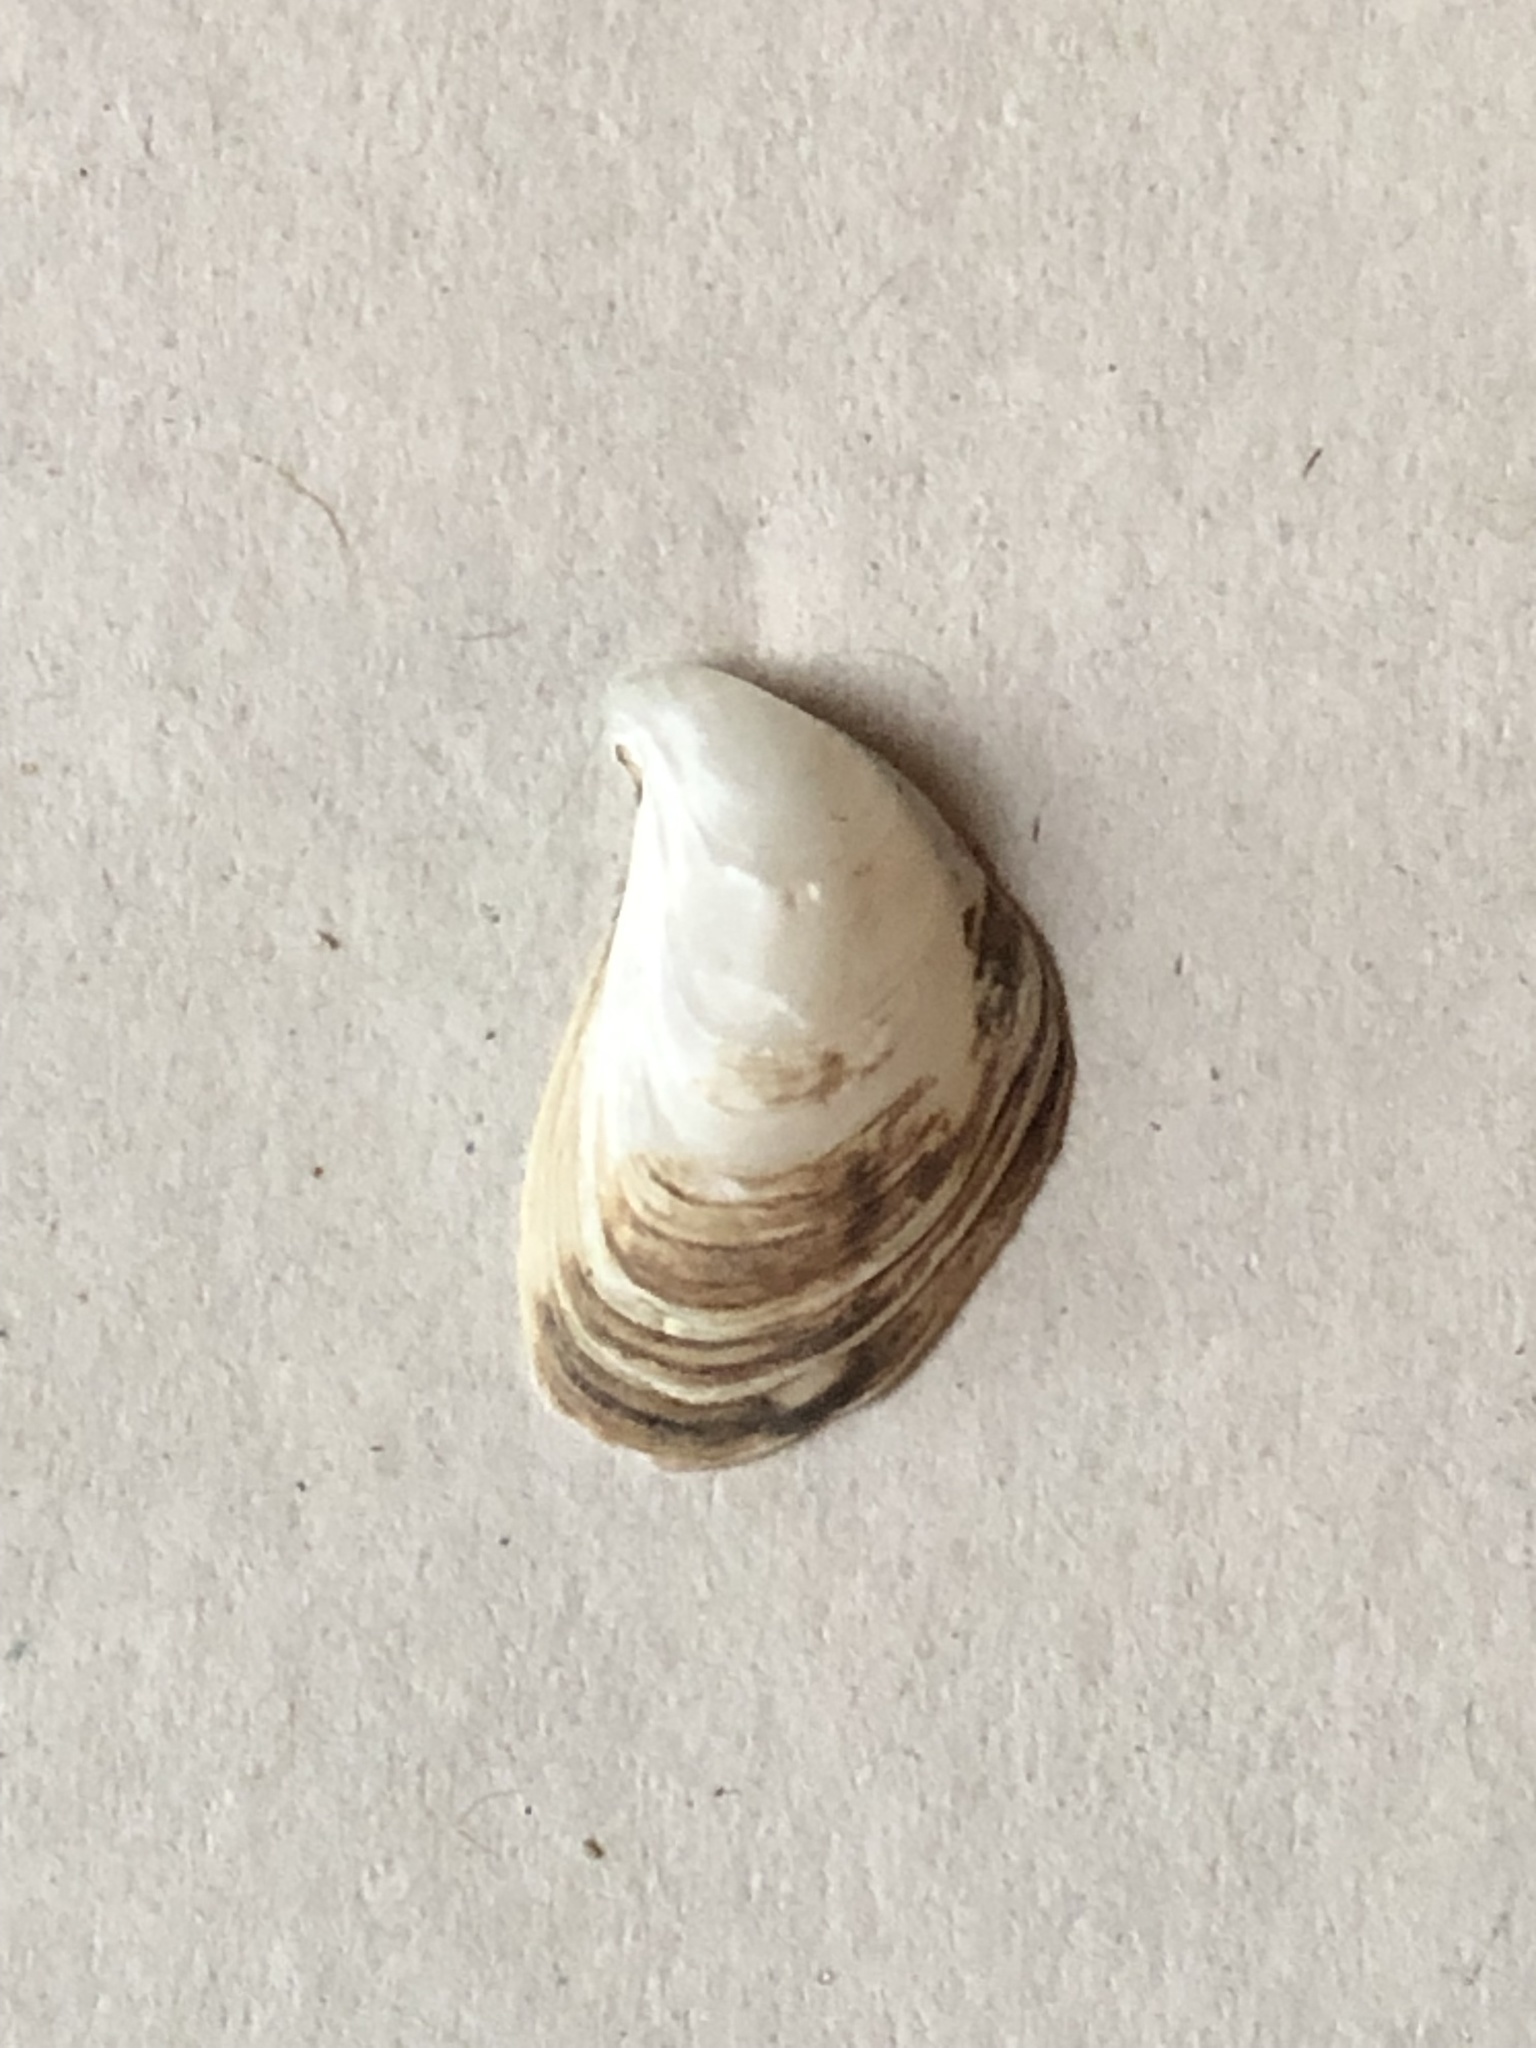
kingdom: Animalia
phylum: Mollusca
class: Bivalvia
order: Myida
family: Dreissenidae
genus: Dreissena
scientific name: Dreissena bugensis
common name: Quagga mussel
